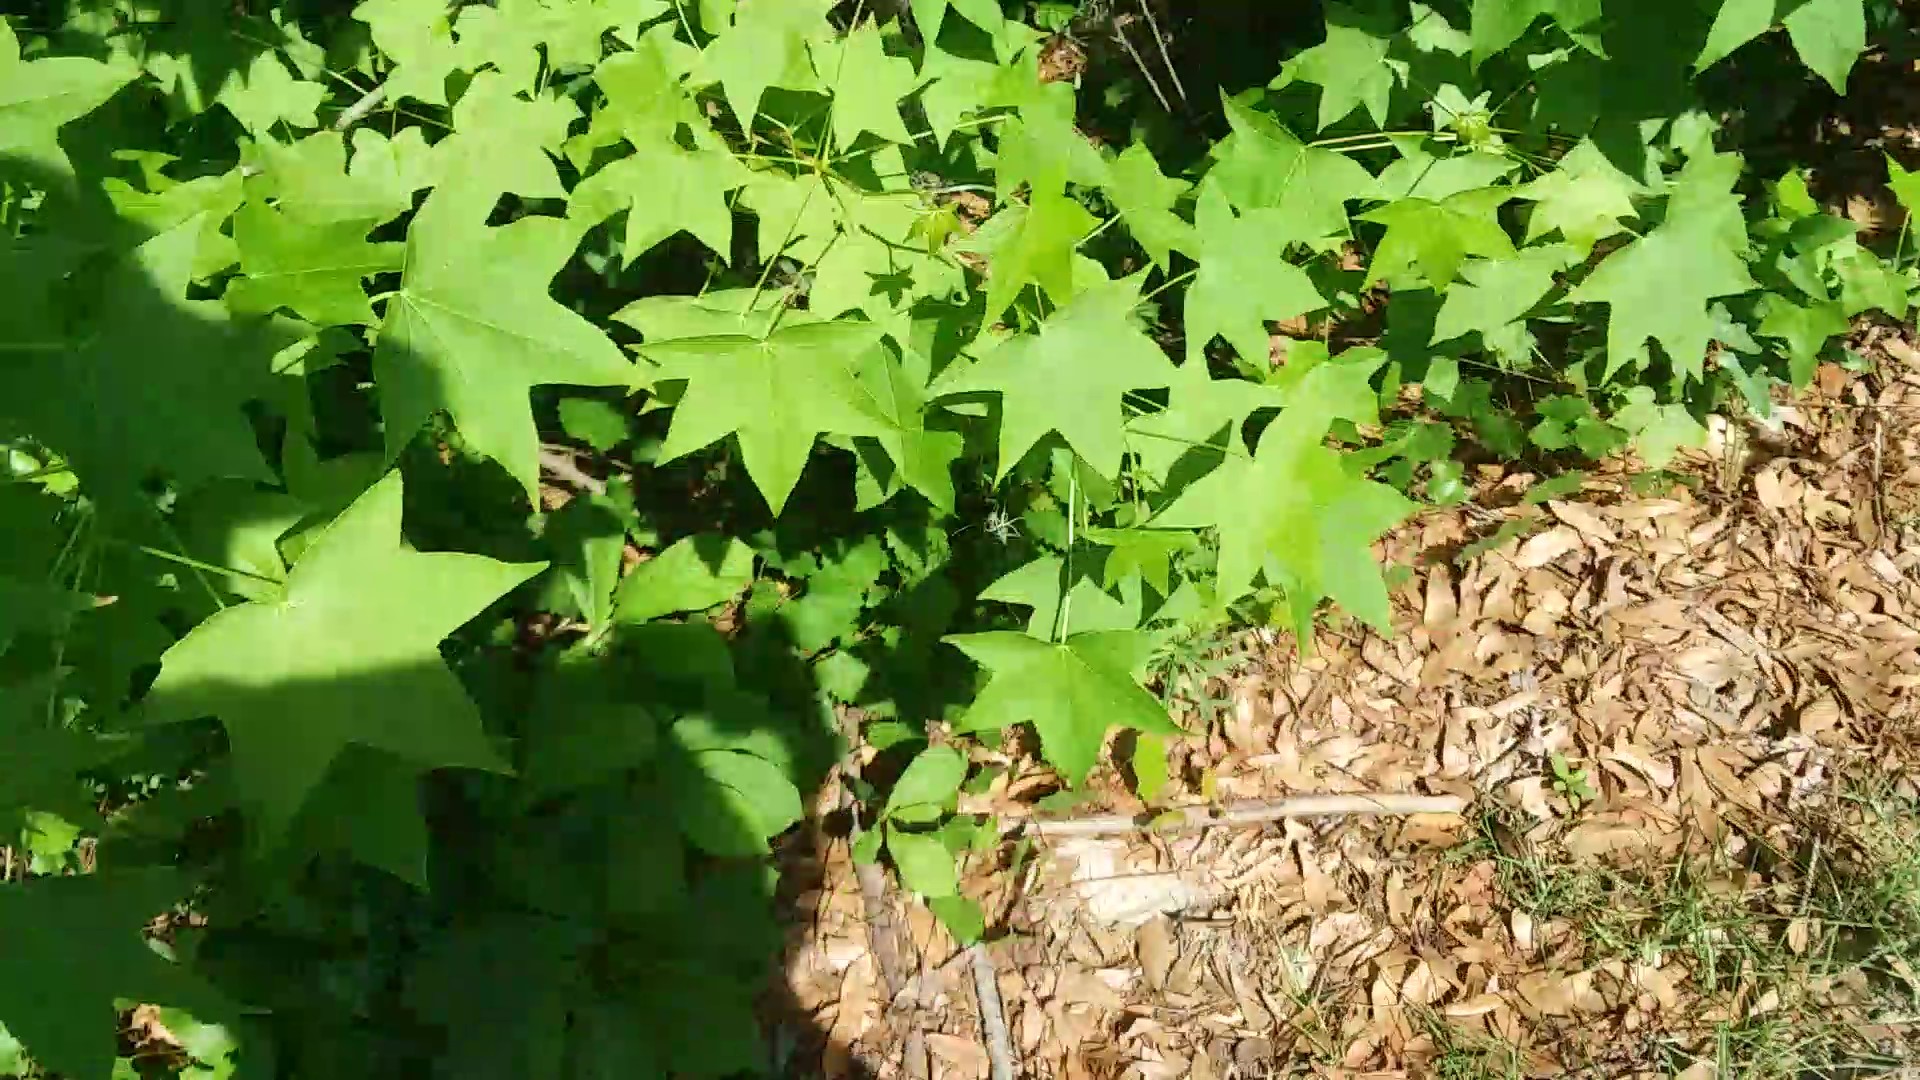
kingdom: Plantae
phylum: Tracheophyta
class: Magnoliopsida
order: Saxifragales
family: Altingiaceae
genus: Liquidambar
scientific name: Liquidambar styraciflua
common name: Sweet gum
